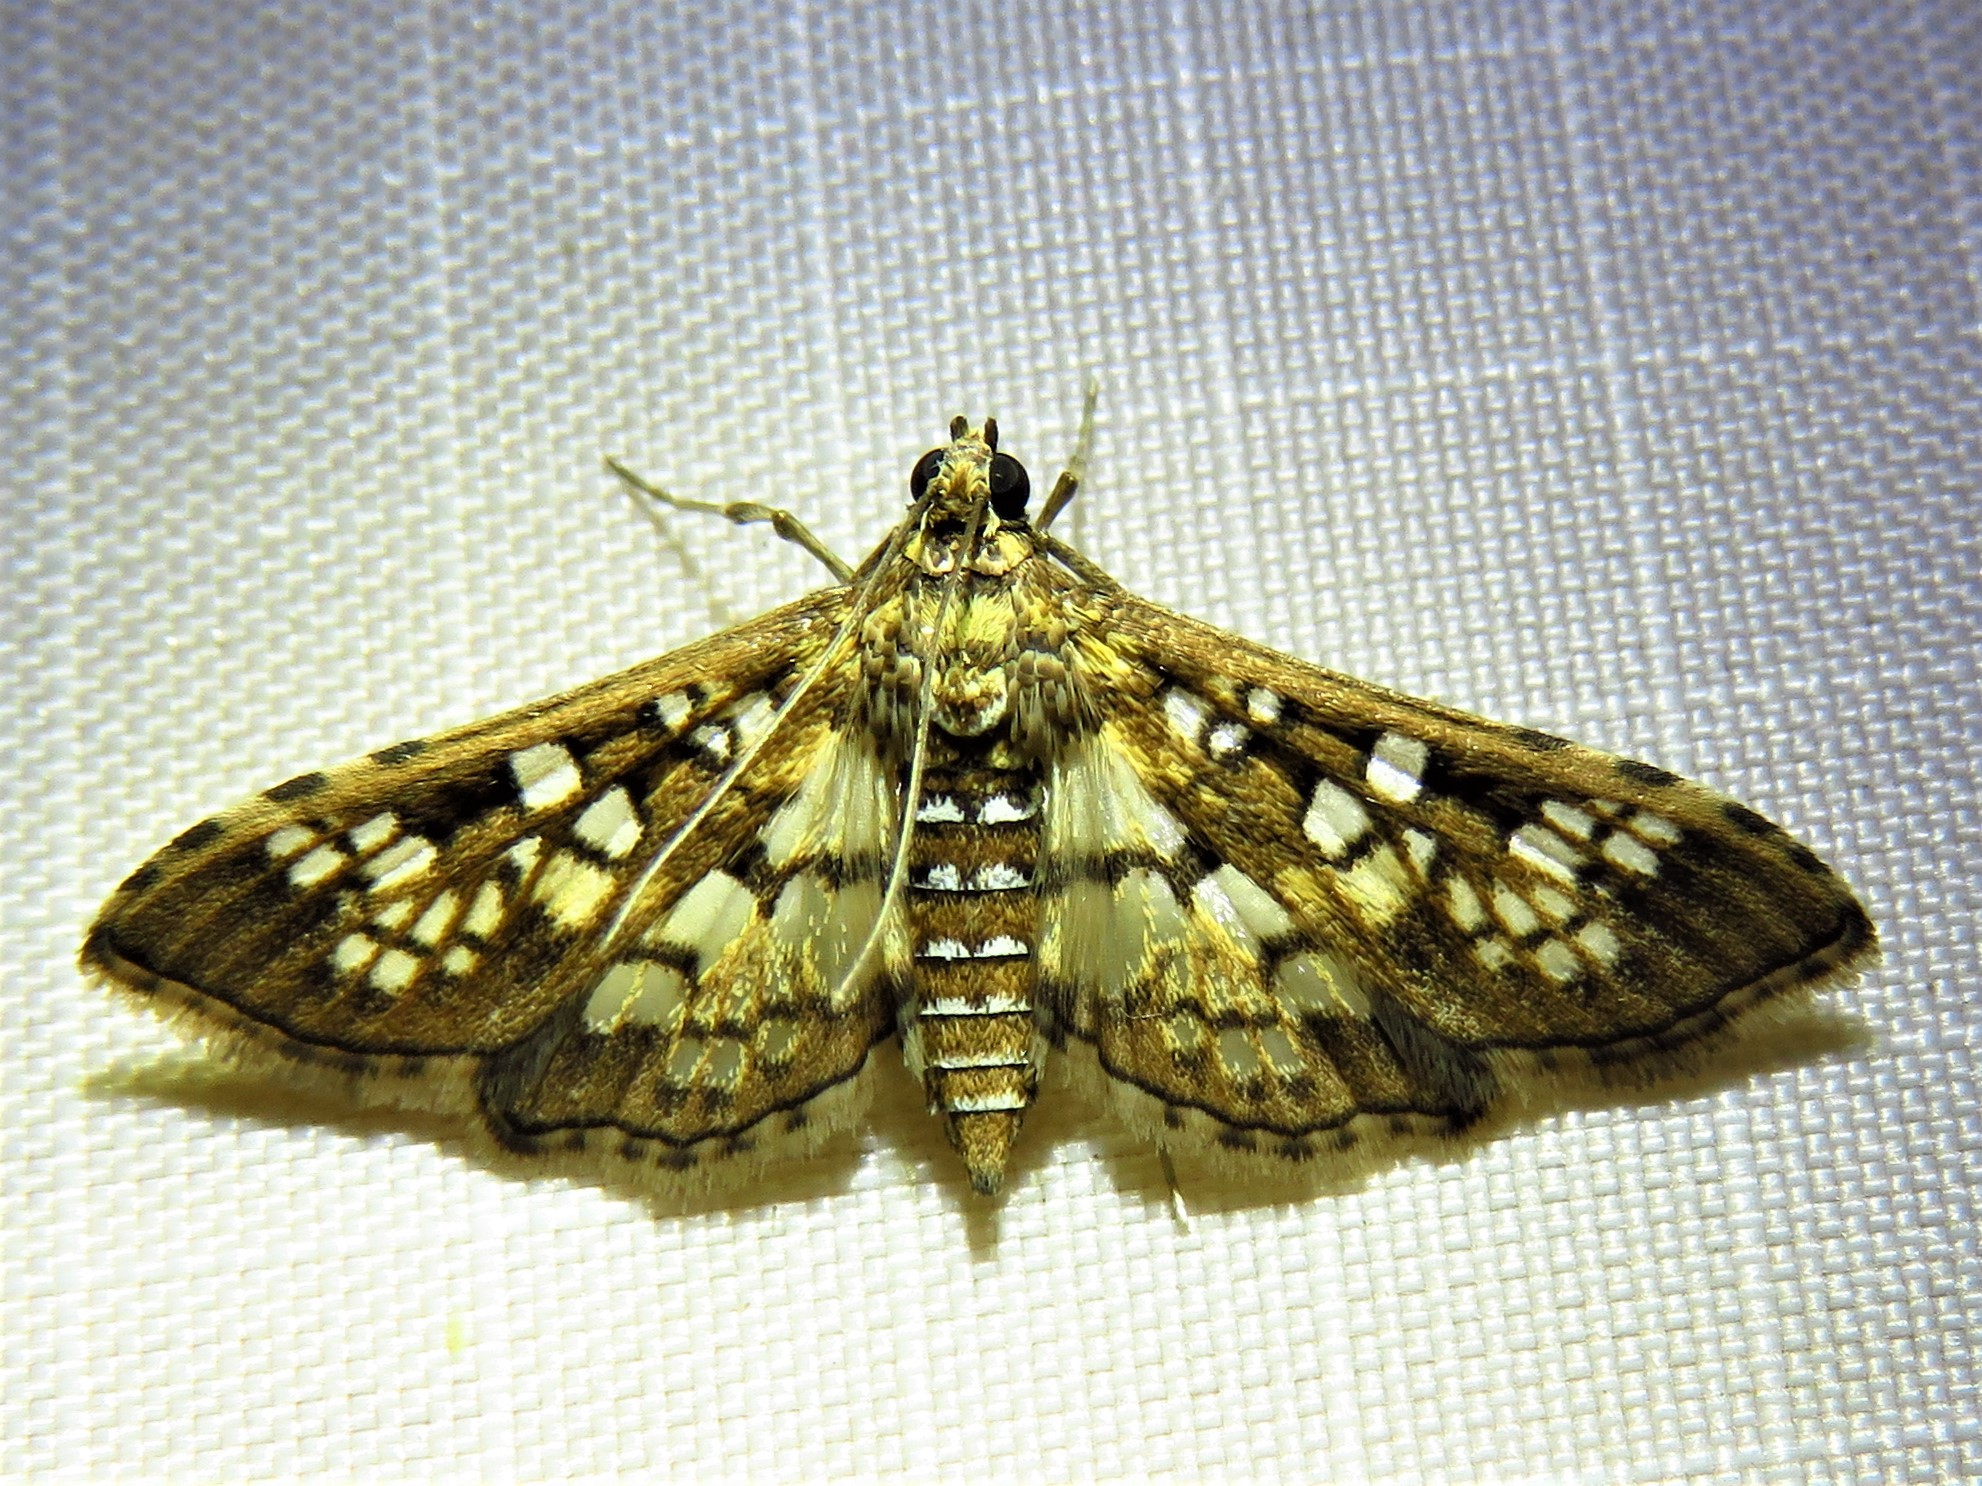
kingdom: Animalia
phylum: Arthropoda
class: Insecta
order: Lepidoptera
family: Crambidae
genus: Samea
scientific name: Samea ecclesialis
